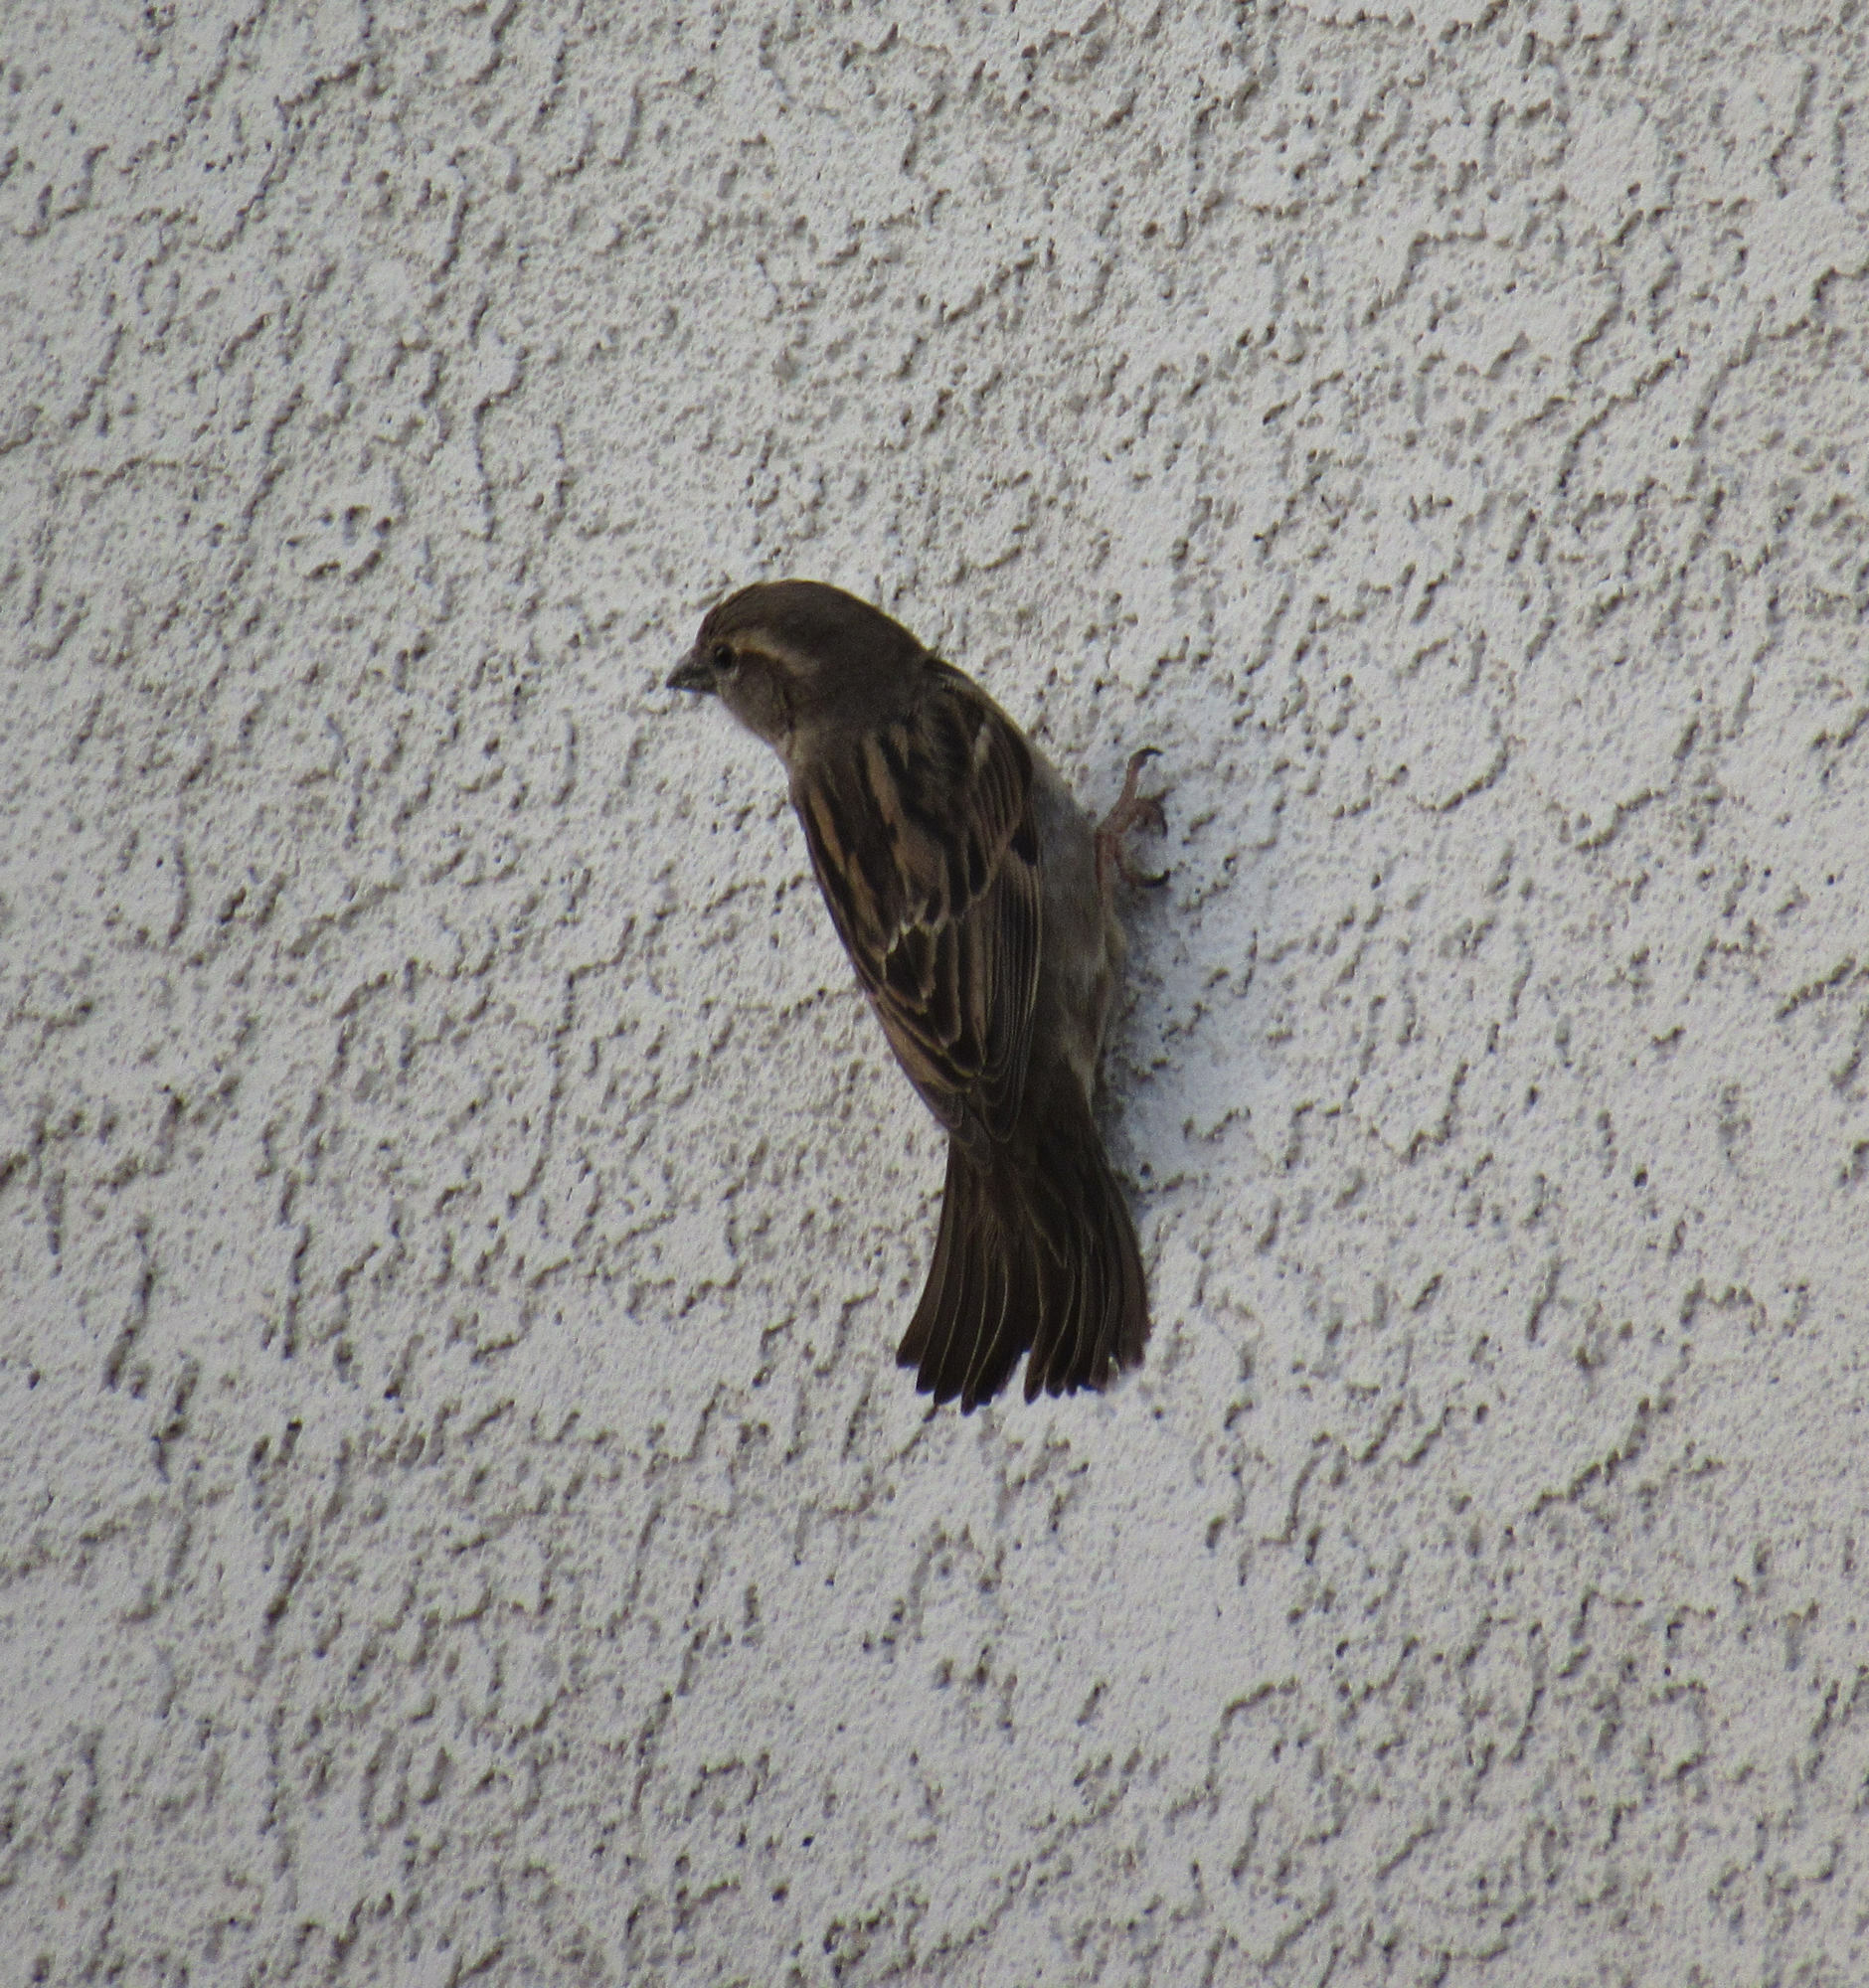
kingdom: Animalia
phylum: Chordata
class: Aves
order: Passeriformes
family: Passeridae
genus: Passer
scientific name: Passer domesticus
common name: House sparrow
